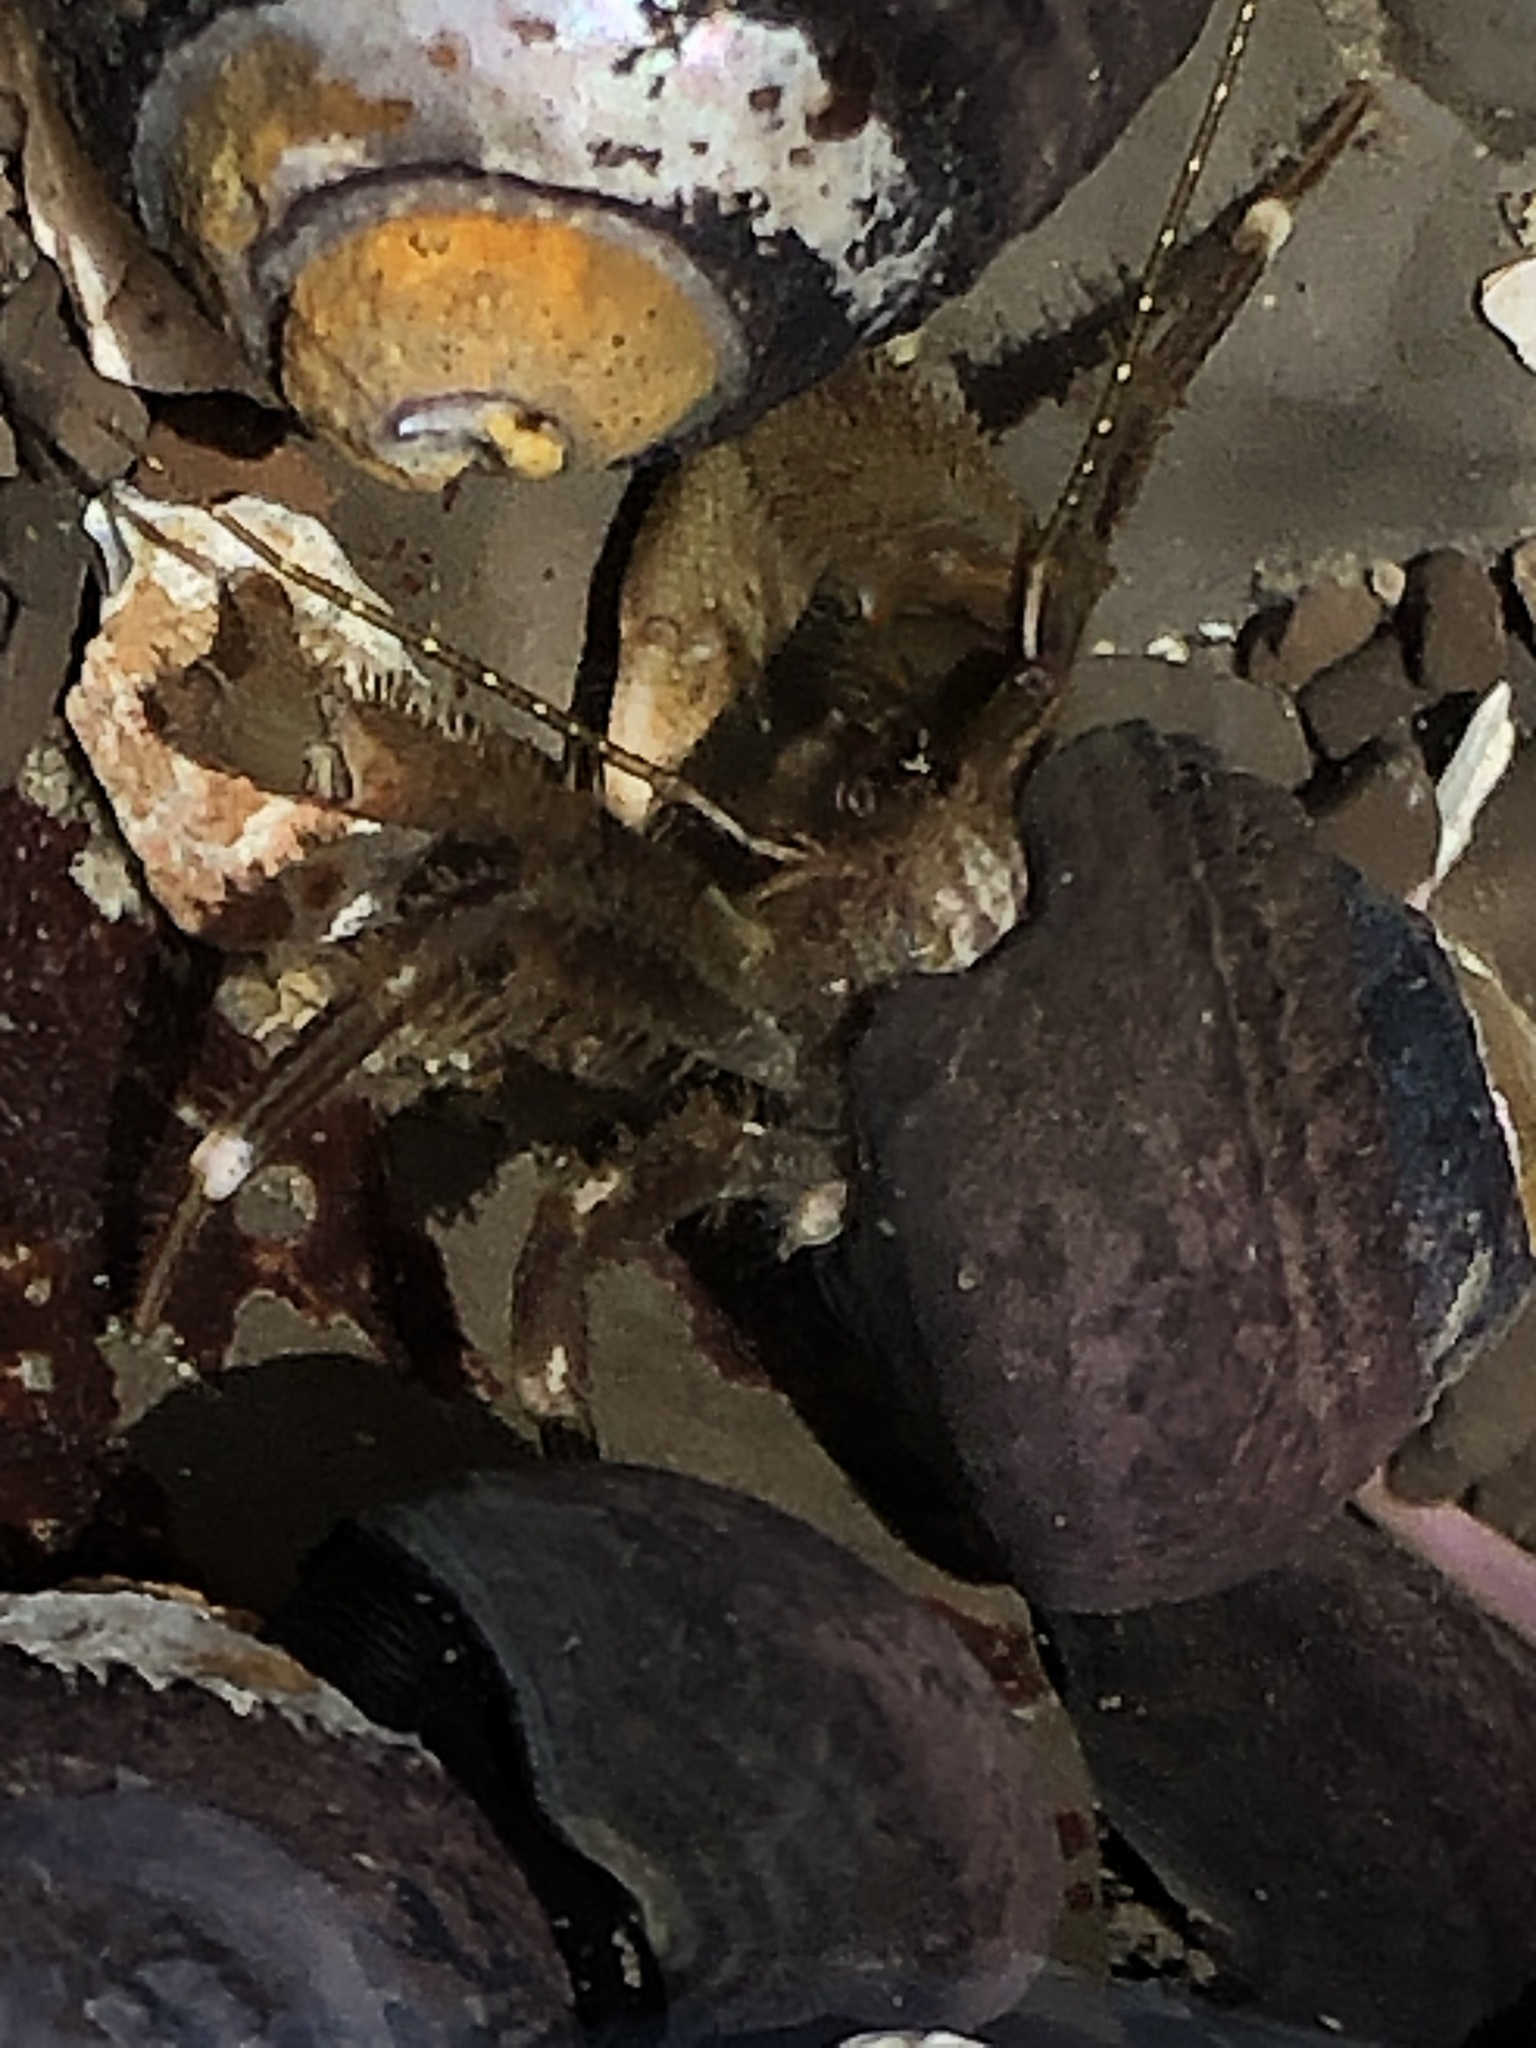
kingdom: Animalia
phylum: Arthropoda
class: Malacostraca
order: Decapoda
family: Paguridae
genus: Pagurus
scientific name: Pagurus hirsutiusculus
